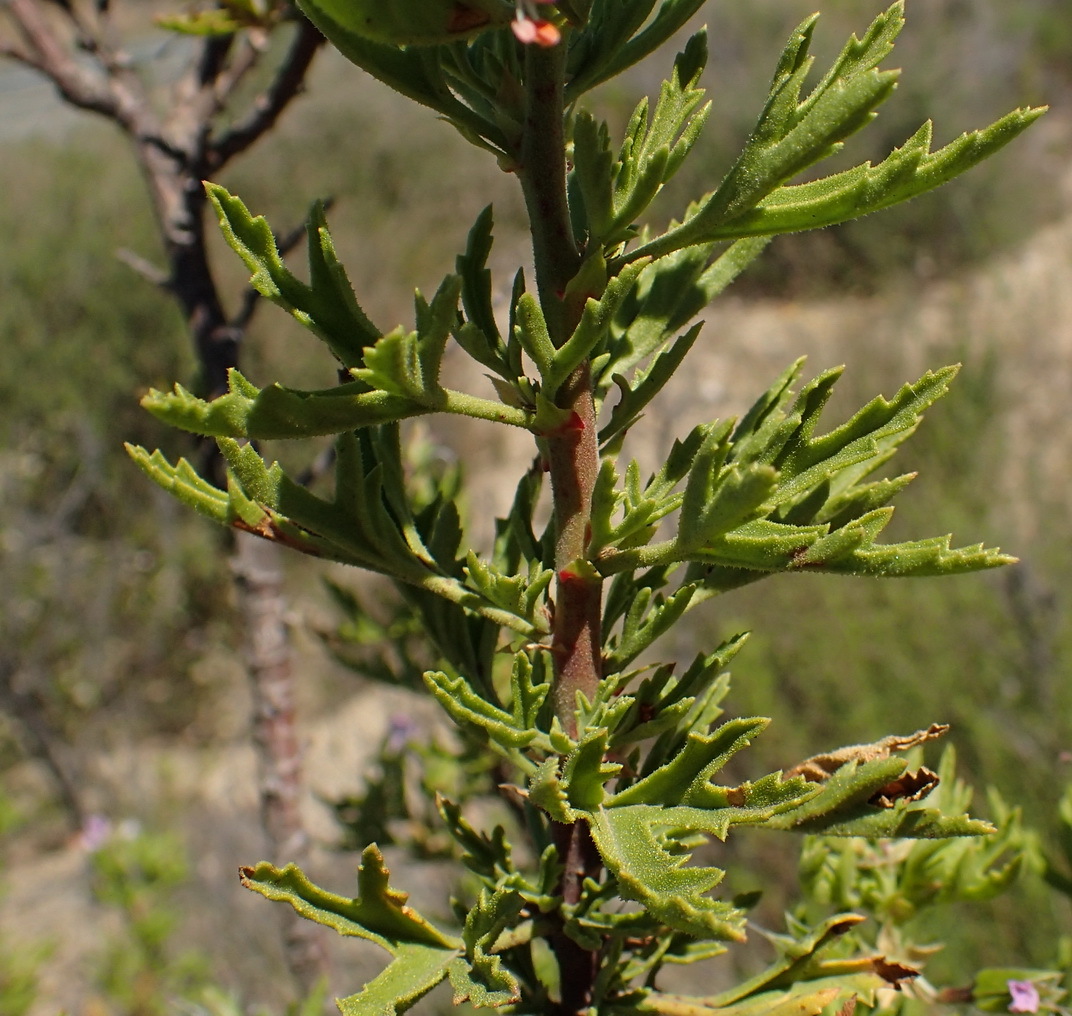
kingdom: Plantae
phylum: Tracheophyta
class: Magnoliopsida
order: Geraniales
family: Geraniaceae
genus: Pelargonium
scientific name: Pelargonium scabrum
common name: Apricot geranium
